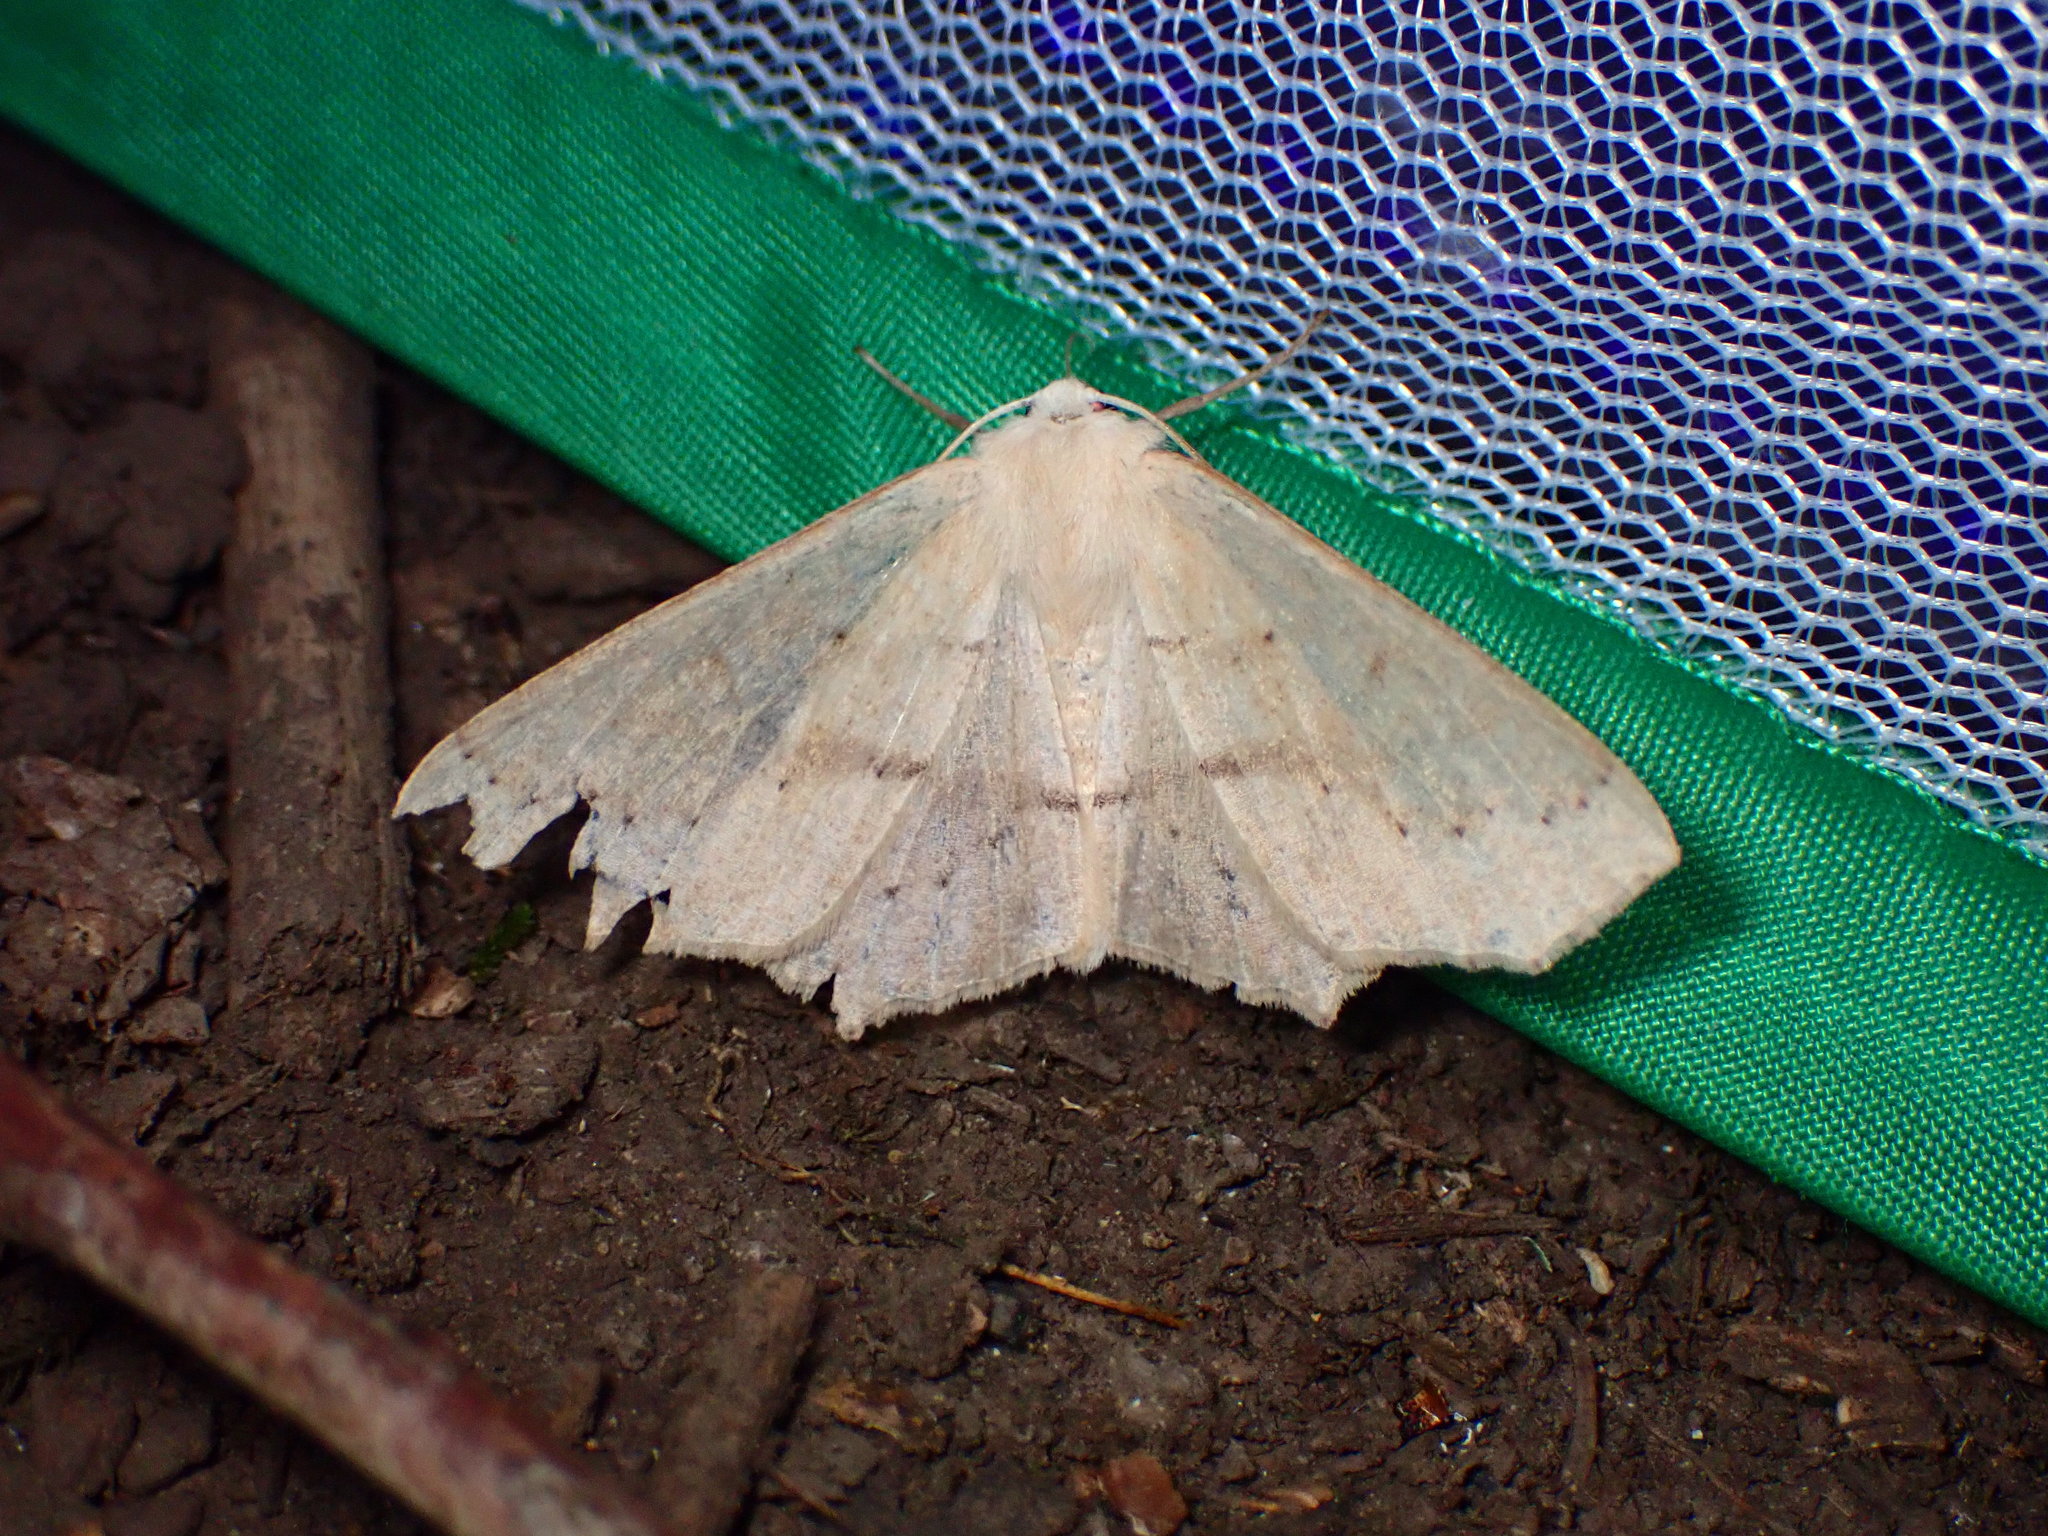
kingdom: Animalia
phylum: Arthropoda
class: Insecta
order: Lepidoptera
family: Geometridae
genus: Sabulodes
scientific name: Sabulodes aegrotata
